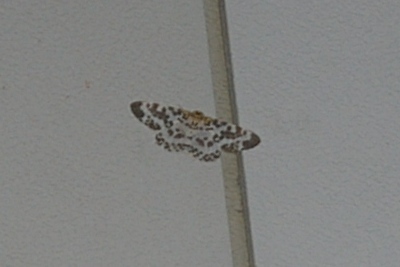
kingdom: Animalia
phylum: Arthropoda
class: Insecta
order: Lepidoptera
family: Geometridae
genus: Metabraxas
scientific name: Metabraxas clerica
